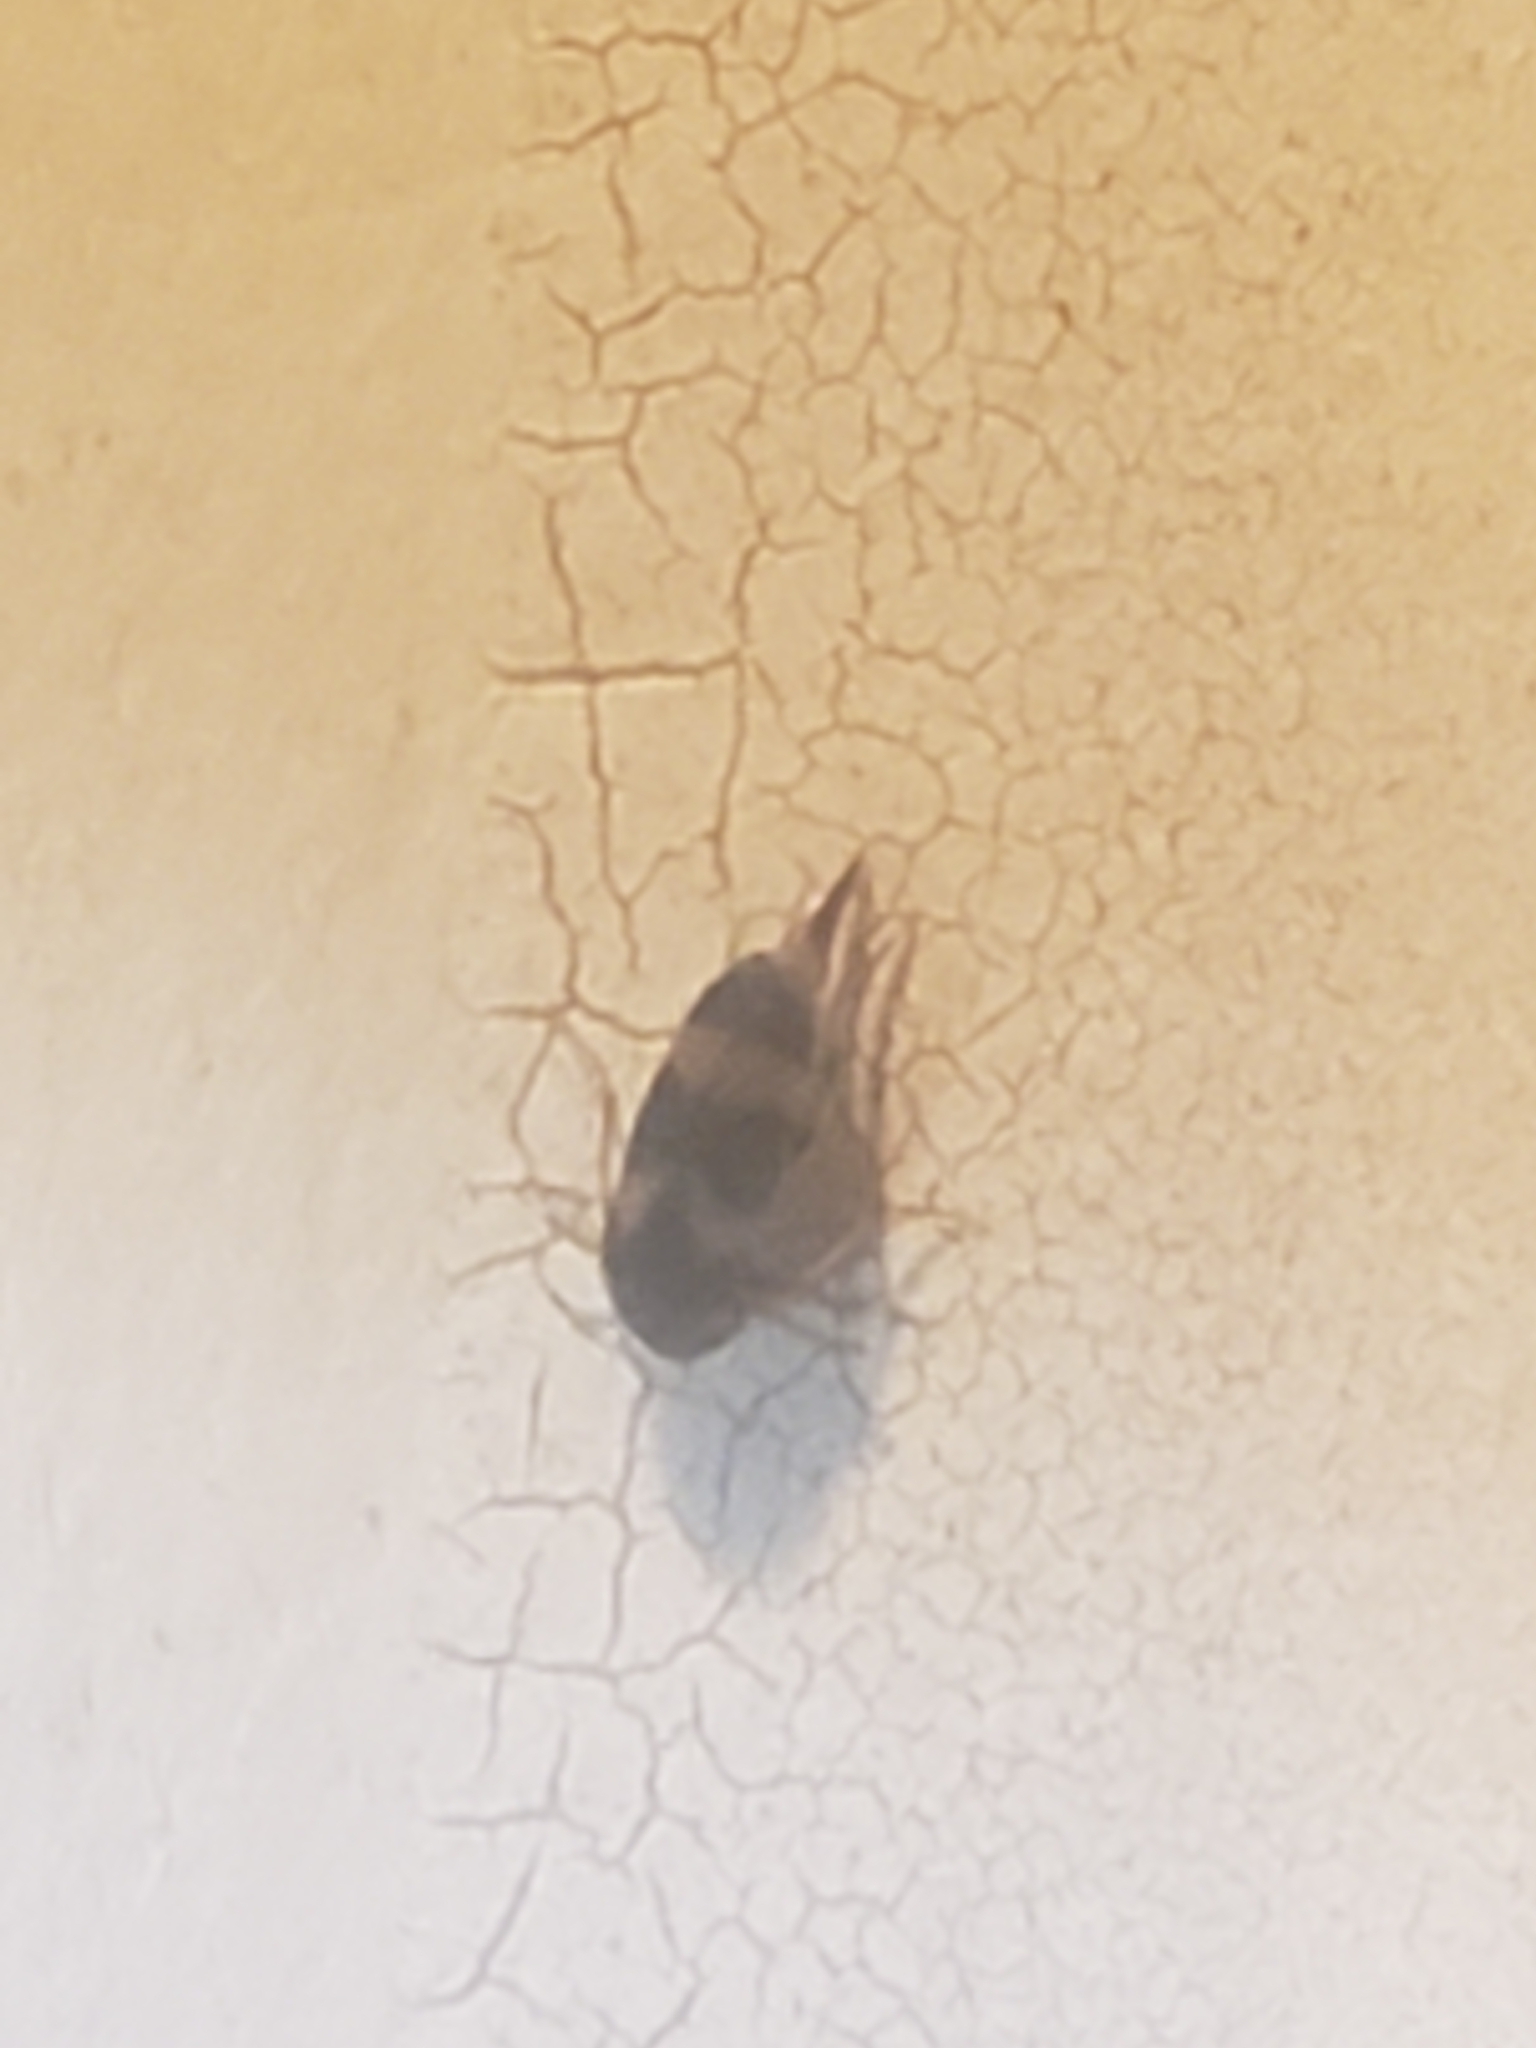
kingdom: Animalia
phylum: Arthropoda
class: Insecta
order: Coleoptera
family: Mordellidae
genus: Mordellistena
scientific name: Mordellistena trifasciata
